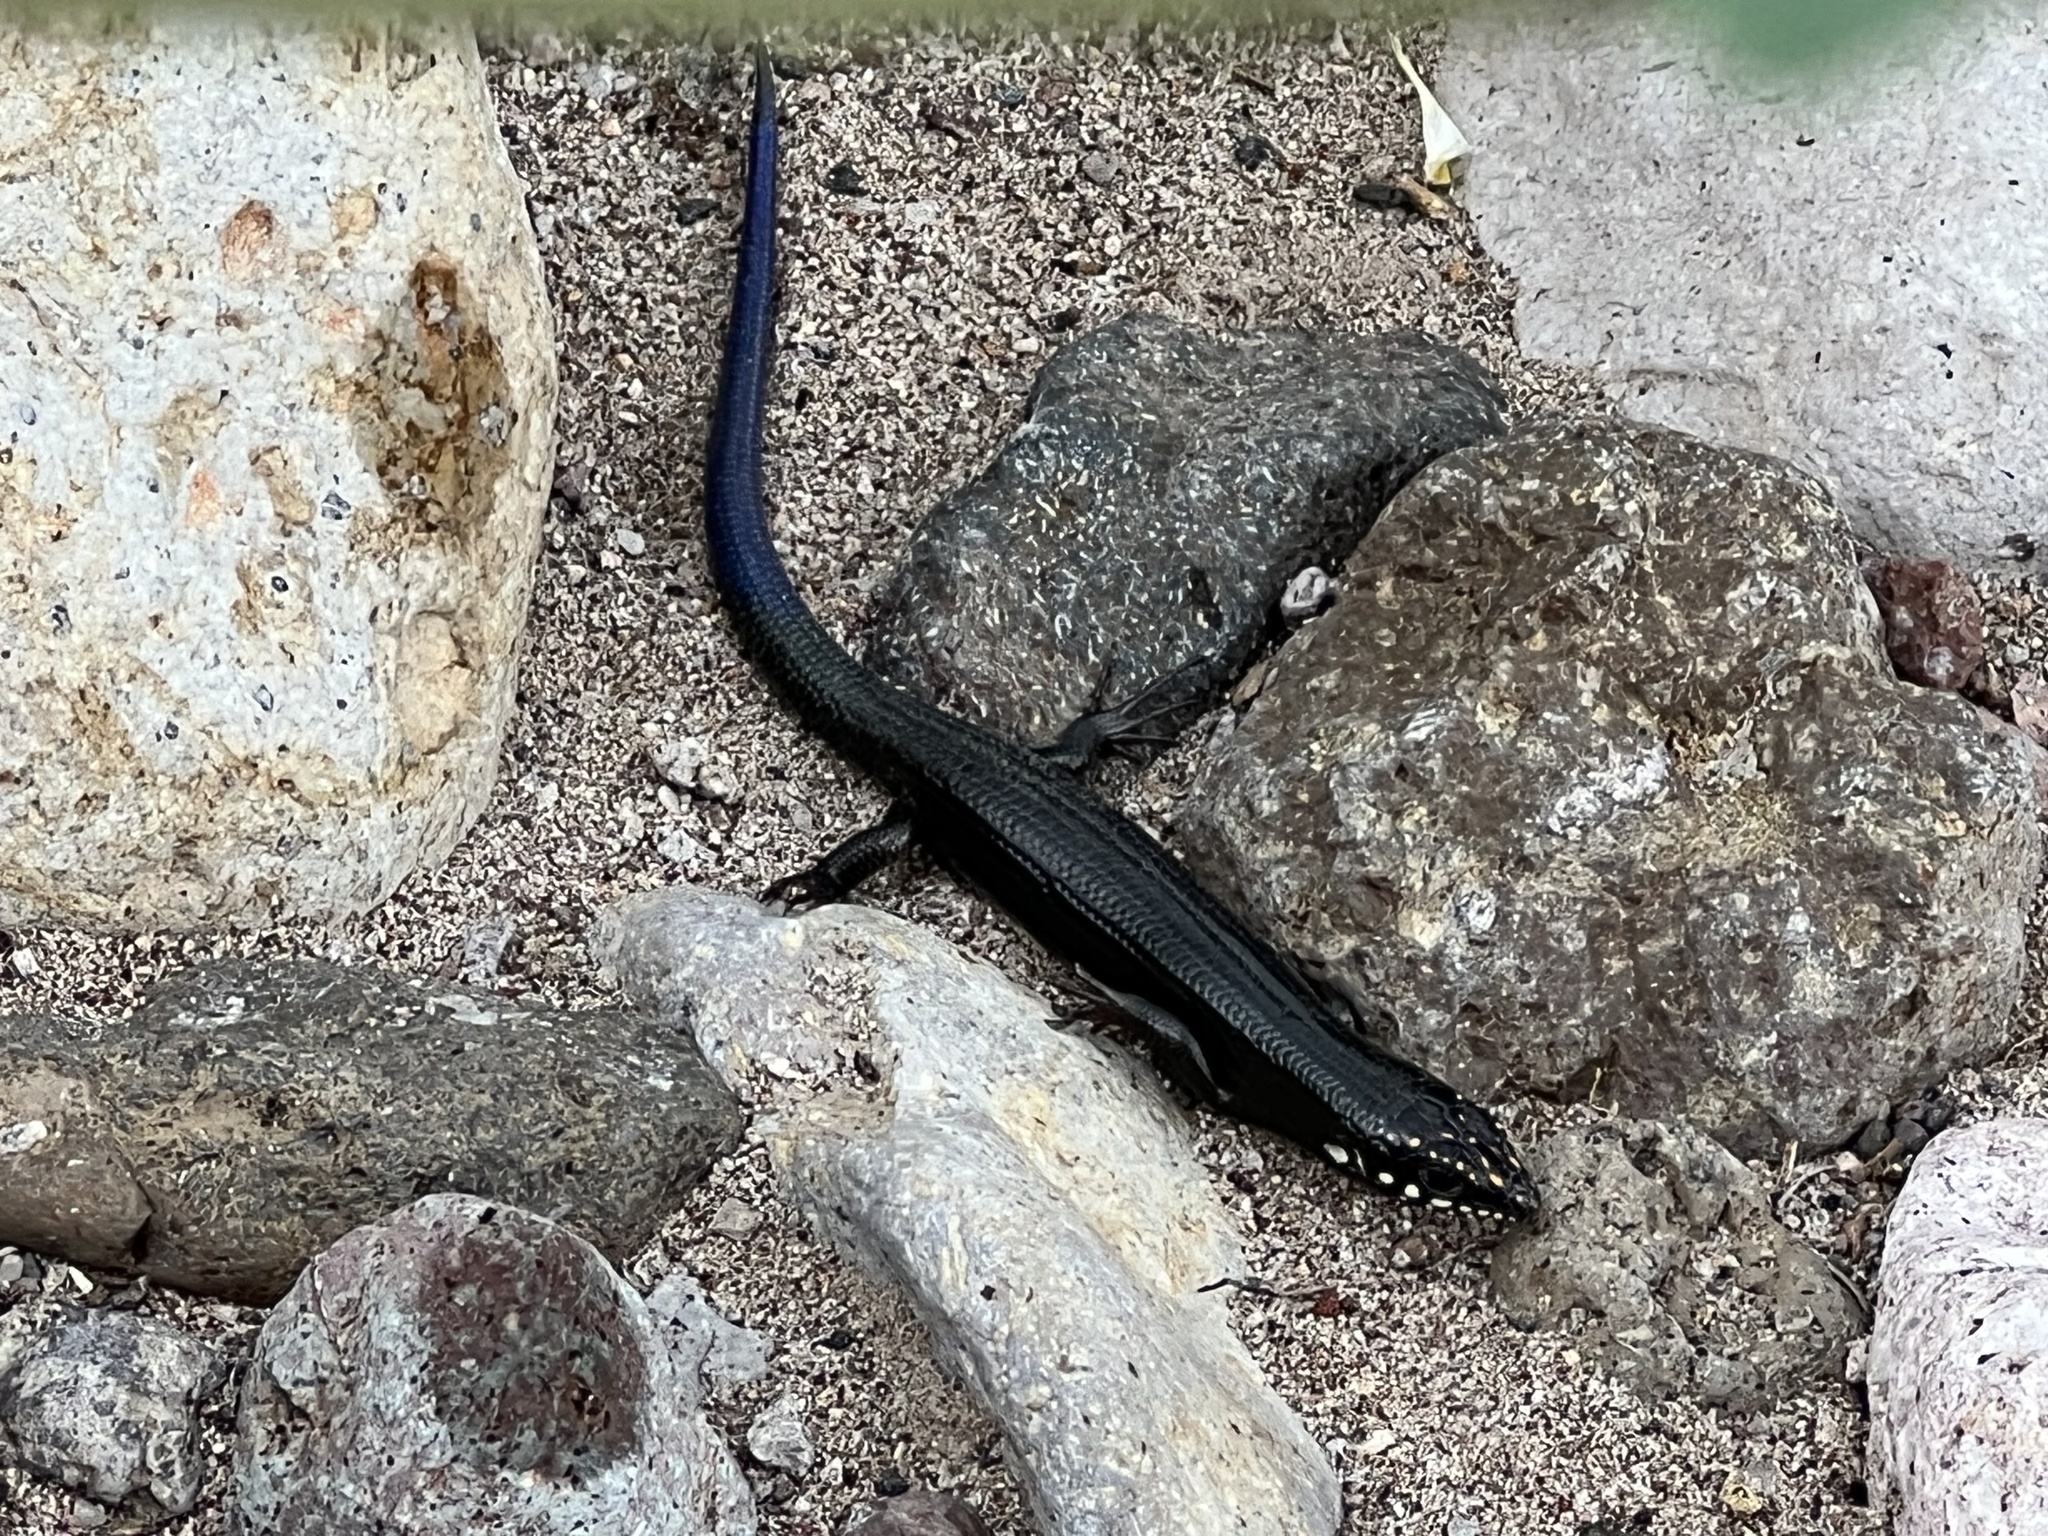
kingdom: Animalia
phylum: Chordata
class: Squamata
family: Scincidae
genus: Plestiodon
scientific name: Plestiodon obsoletus
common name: Great plains skink
